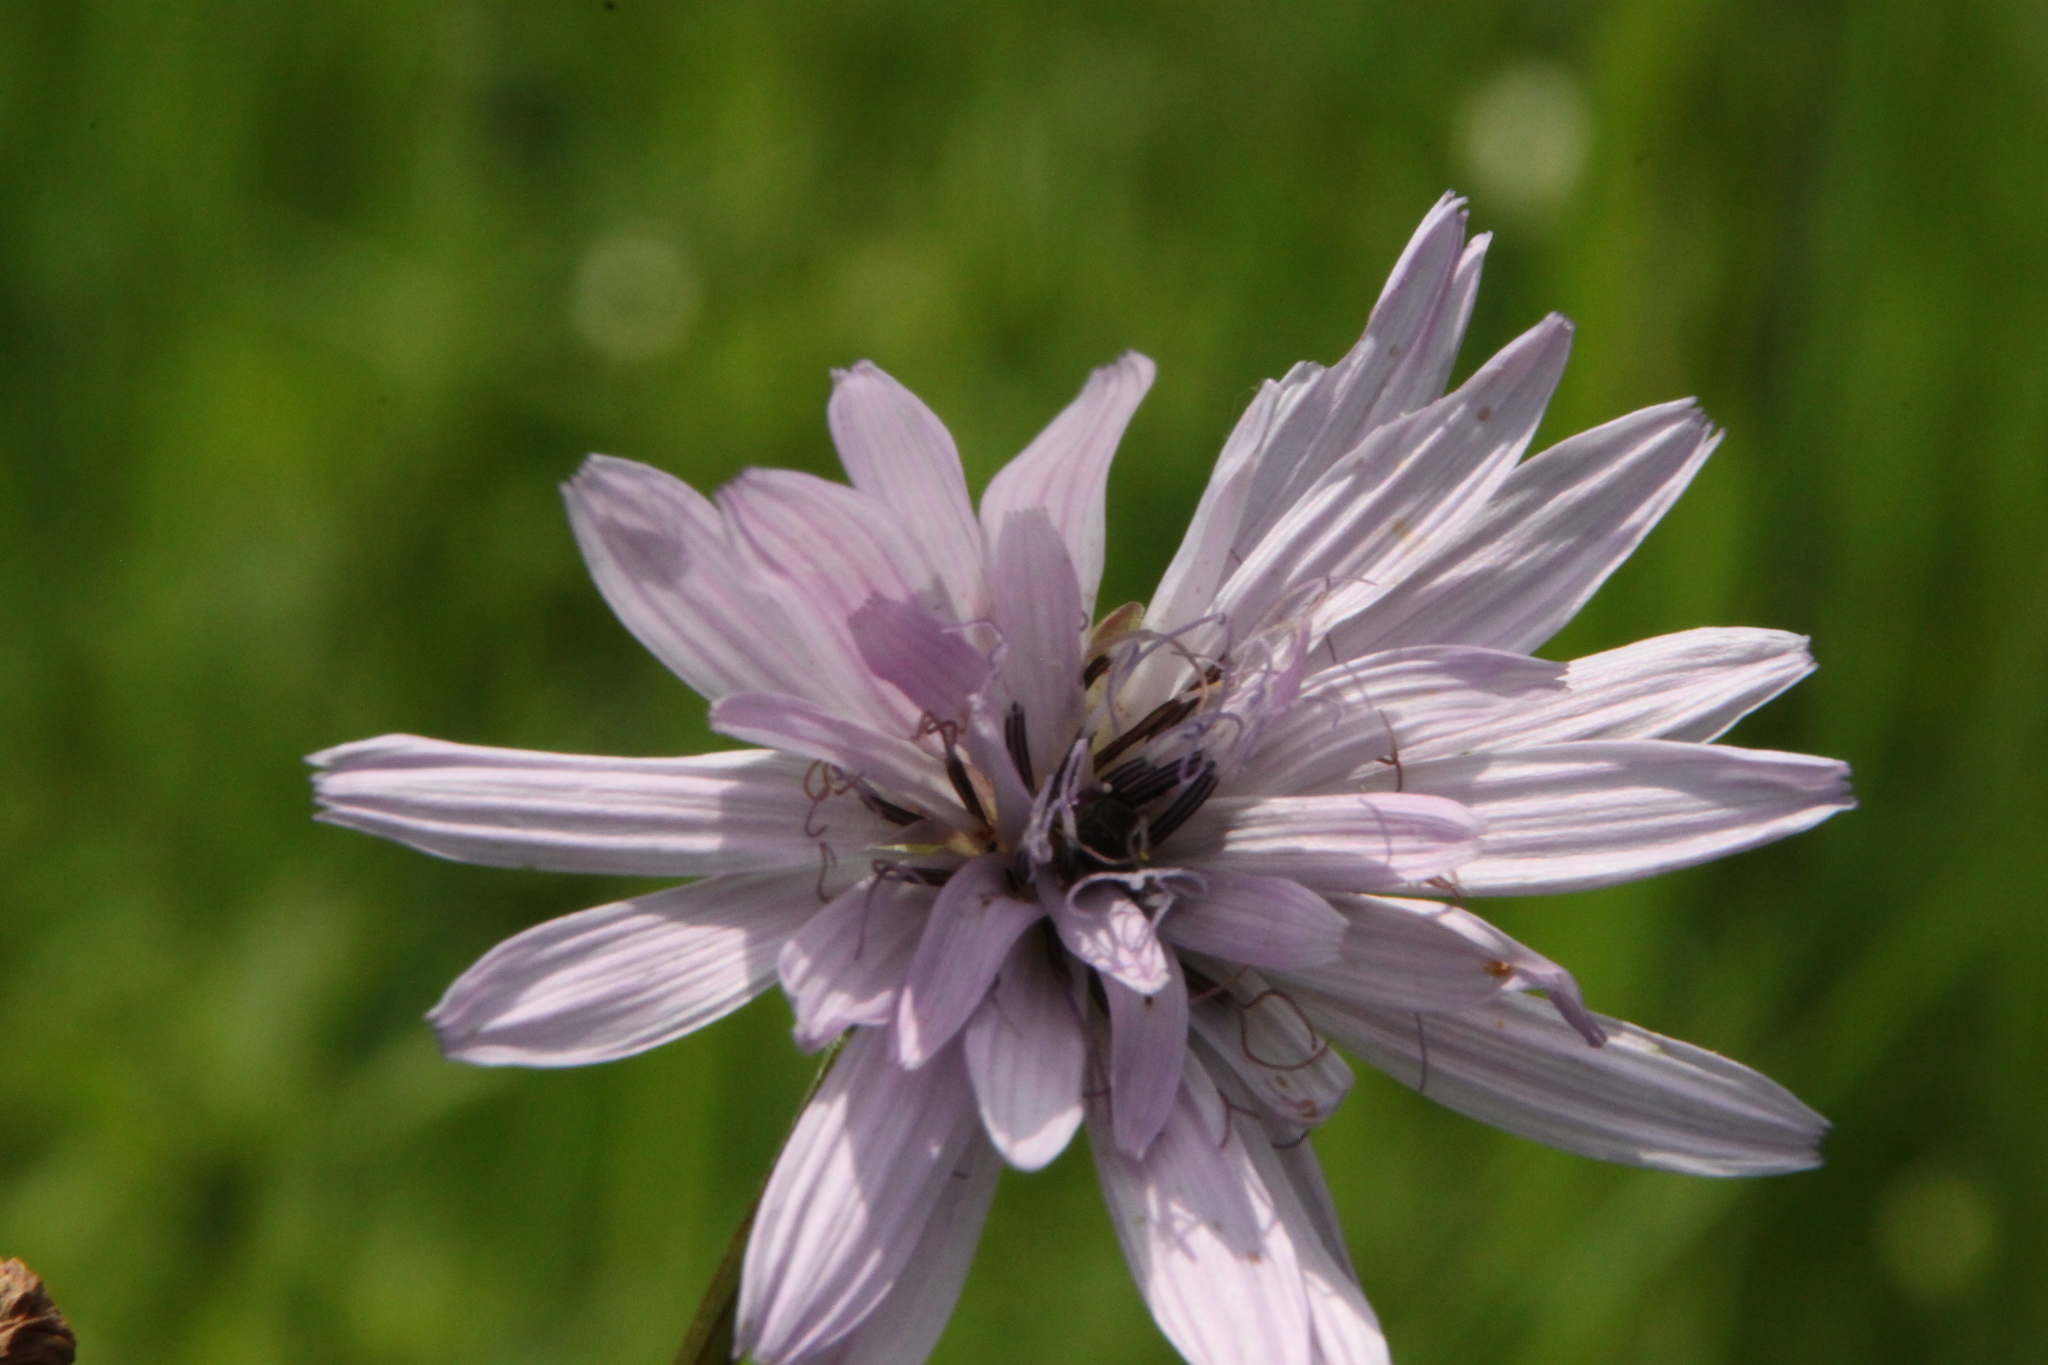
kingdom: Plantae
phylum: Tracheophyta
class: Magnoliopsida
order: Asterales
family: Asteraceae
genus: Scorzonera
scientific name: Scorzonera purpurea
